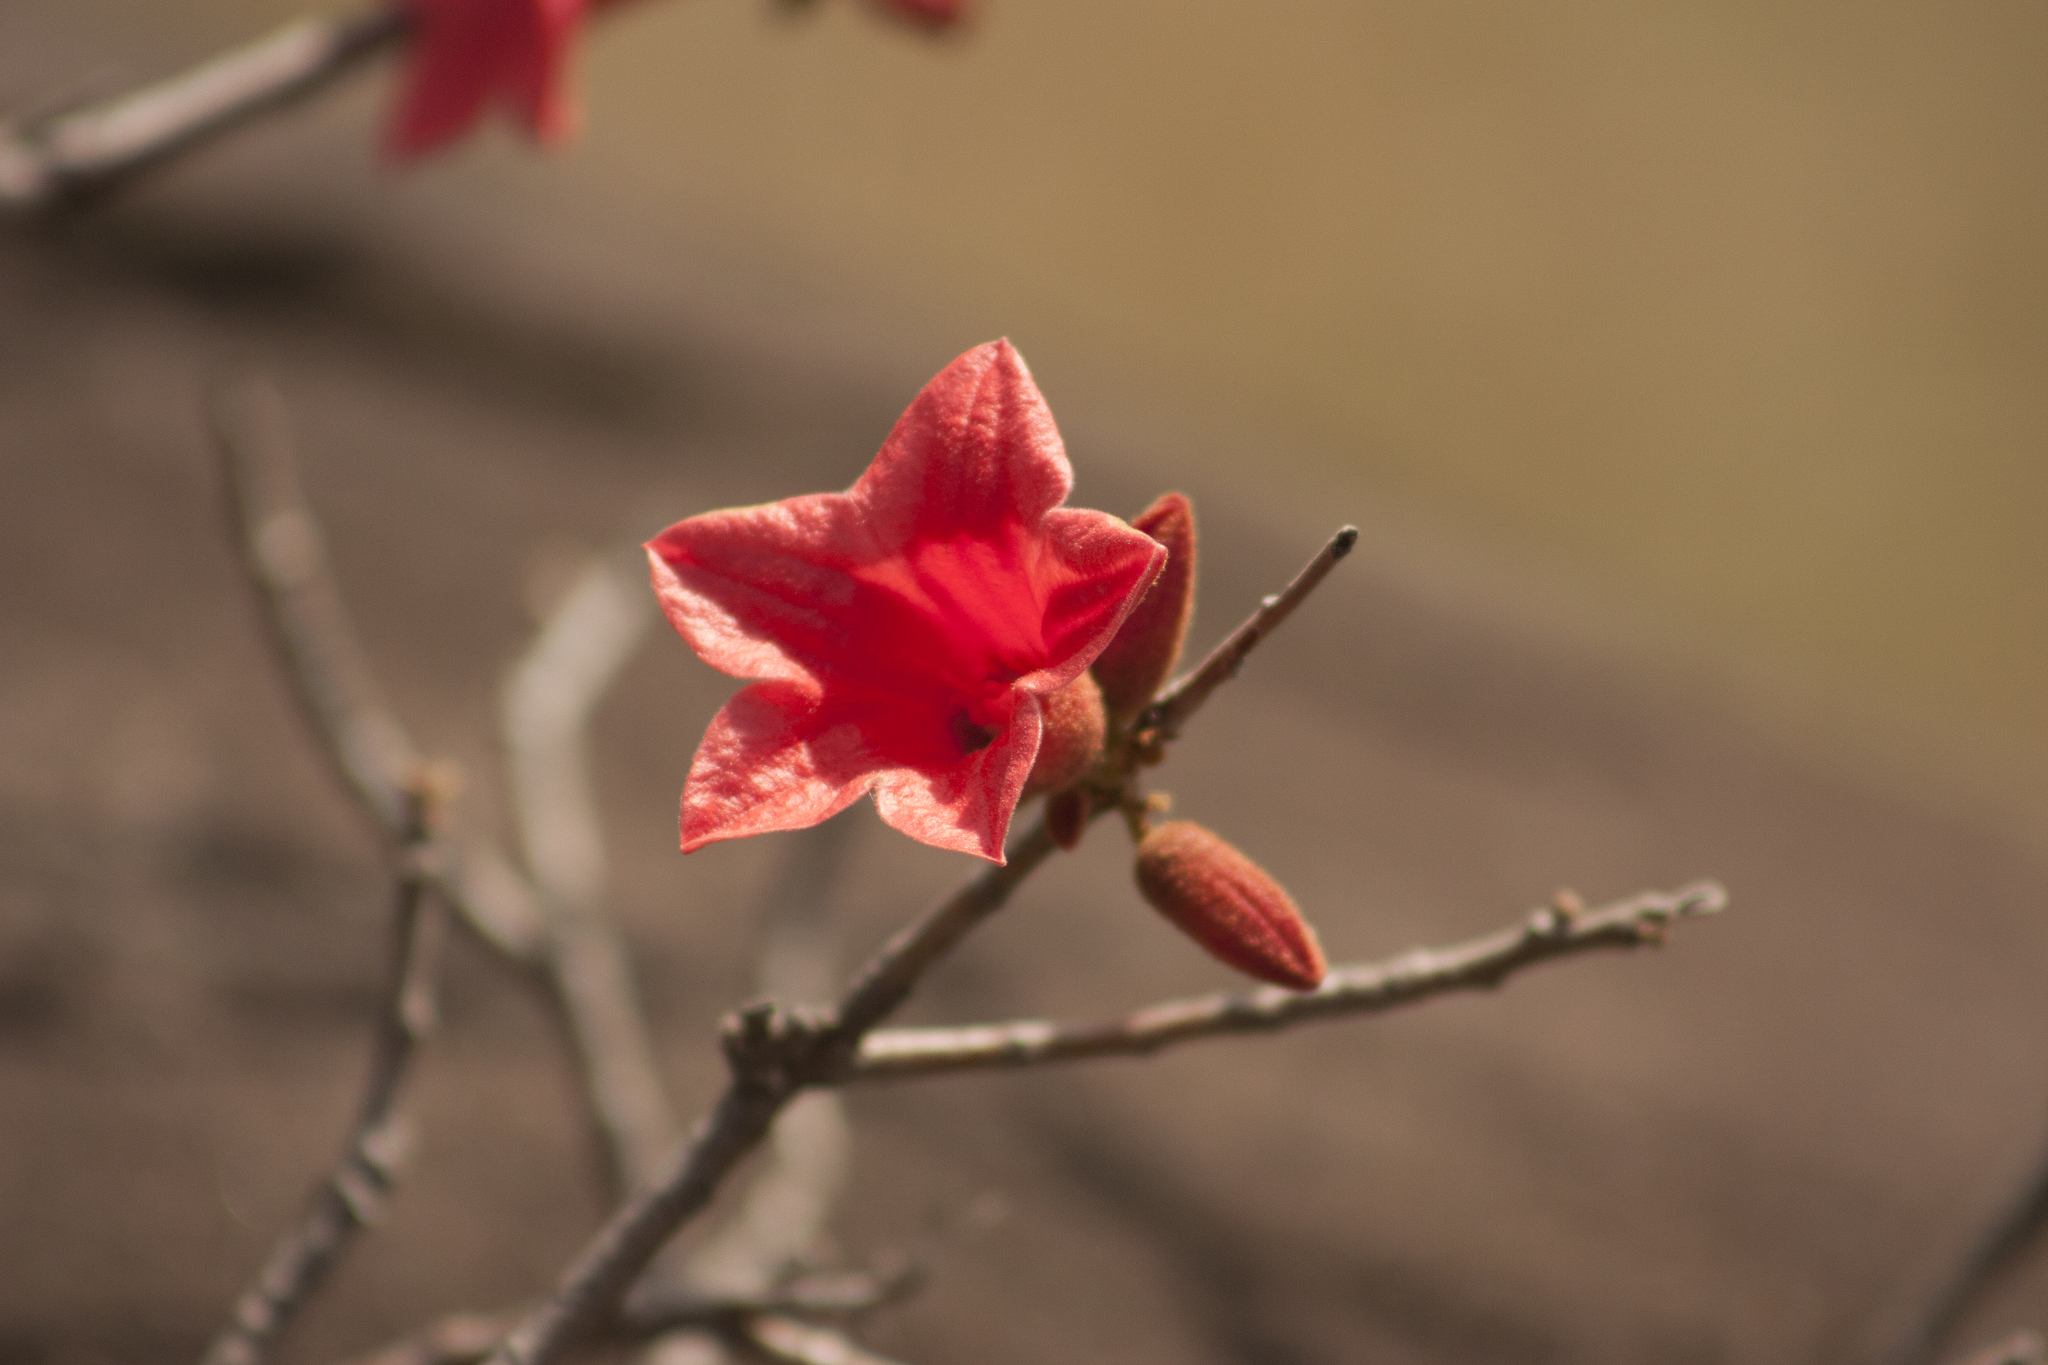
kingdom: Plantae
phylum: Tracheophyta
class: Magnoliopsida
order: Malvales
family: Malvaceae
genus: Brachychiton
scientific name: Brachychiton bidwillii
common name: Little kurrajong
